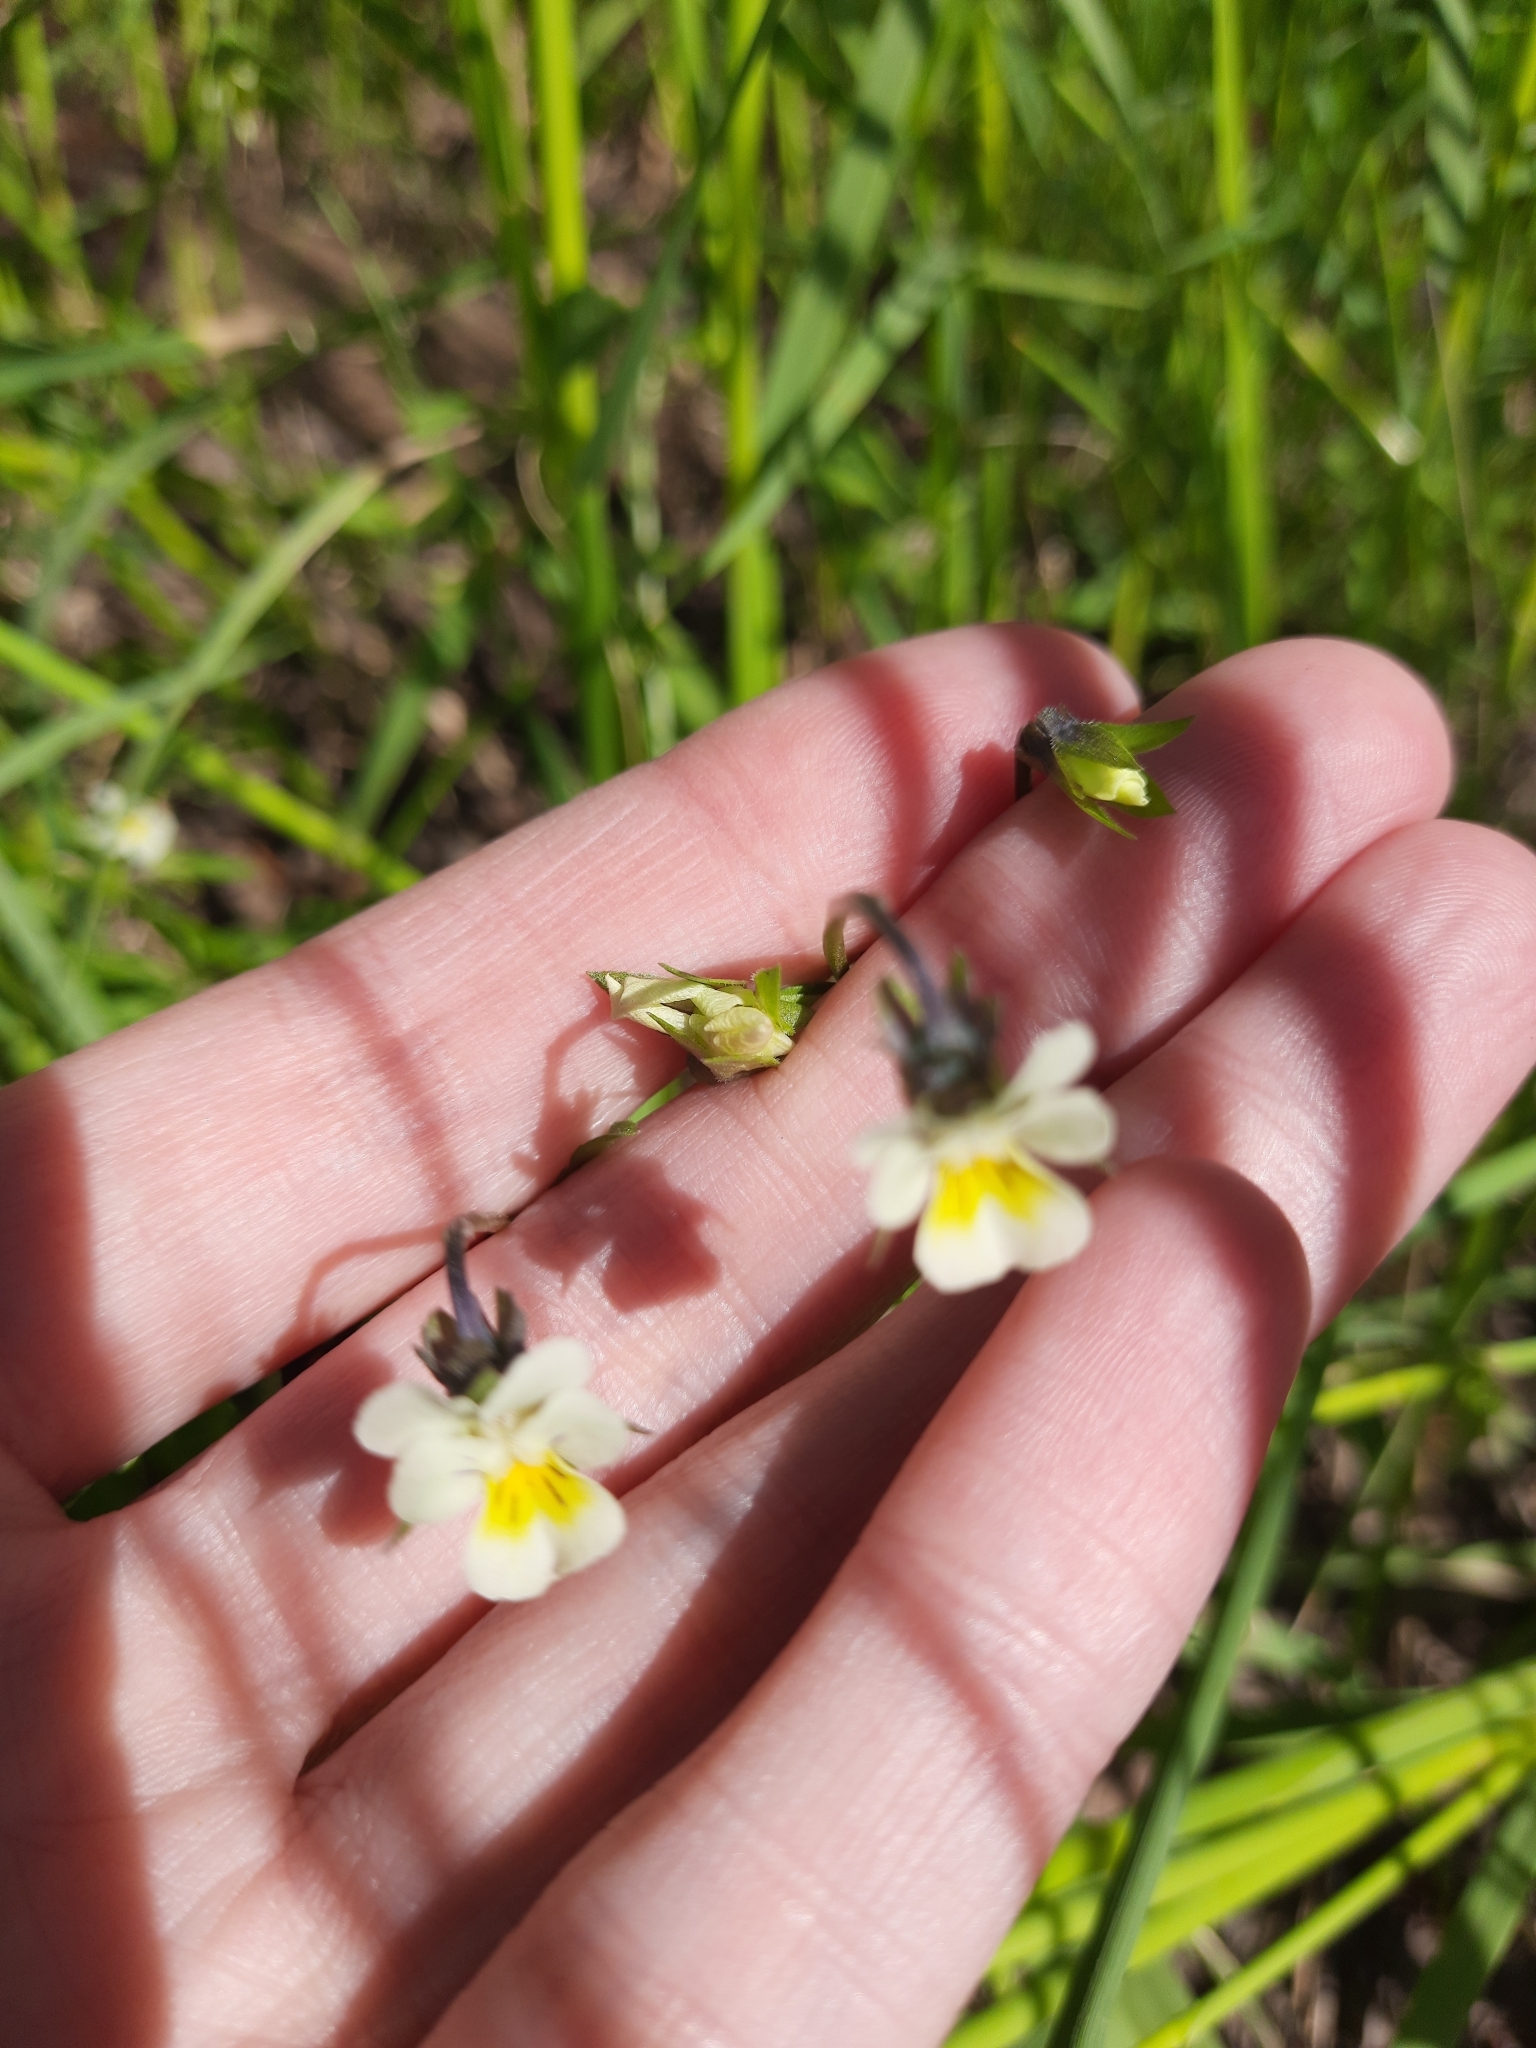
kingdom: Plantae
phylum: Tracheophyta
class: Magnoliopsida
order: Malpighiales
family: Violaceae
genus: Viola
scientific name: Viola arvensis
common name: Field pansy
